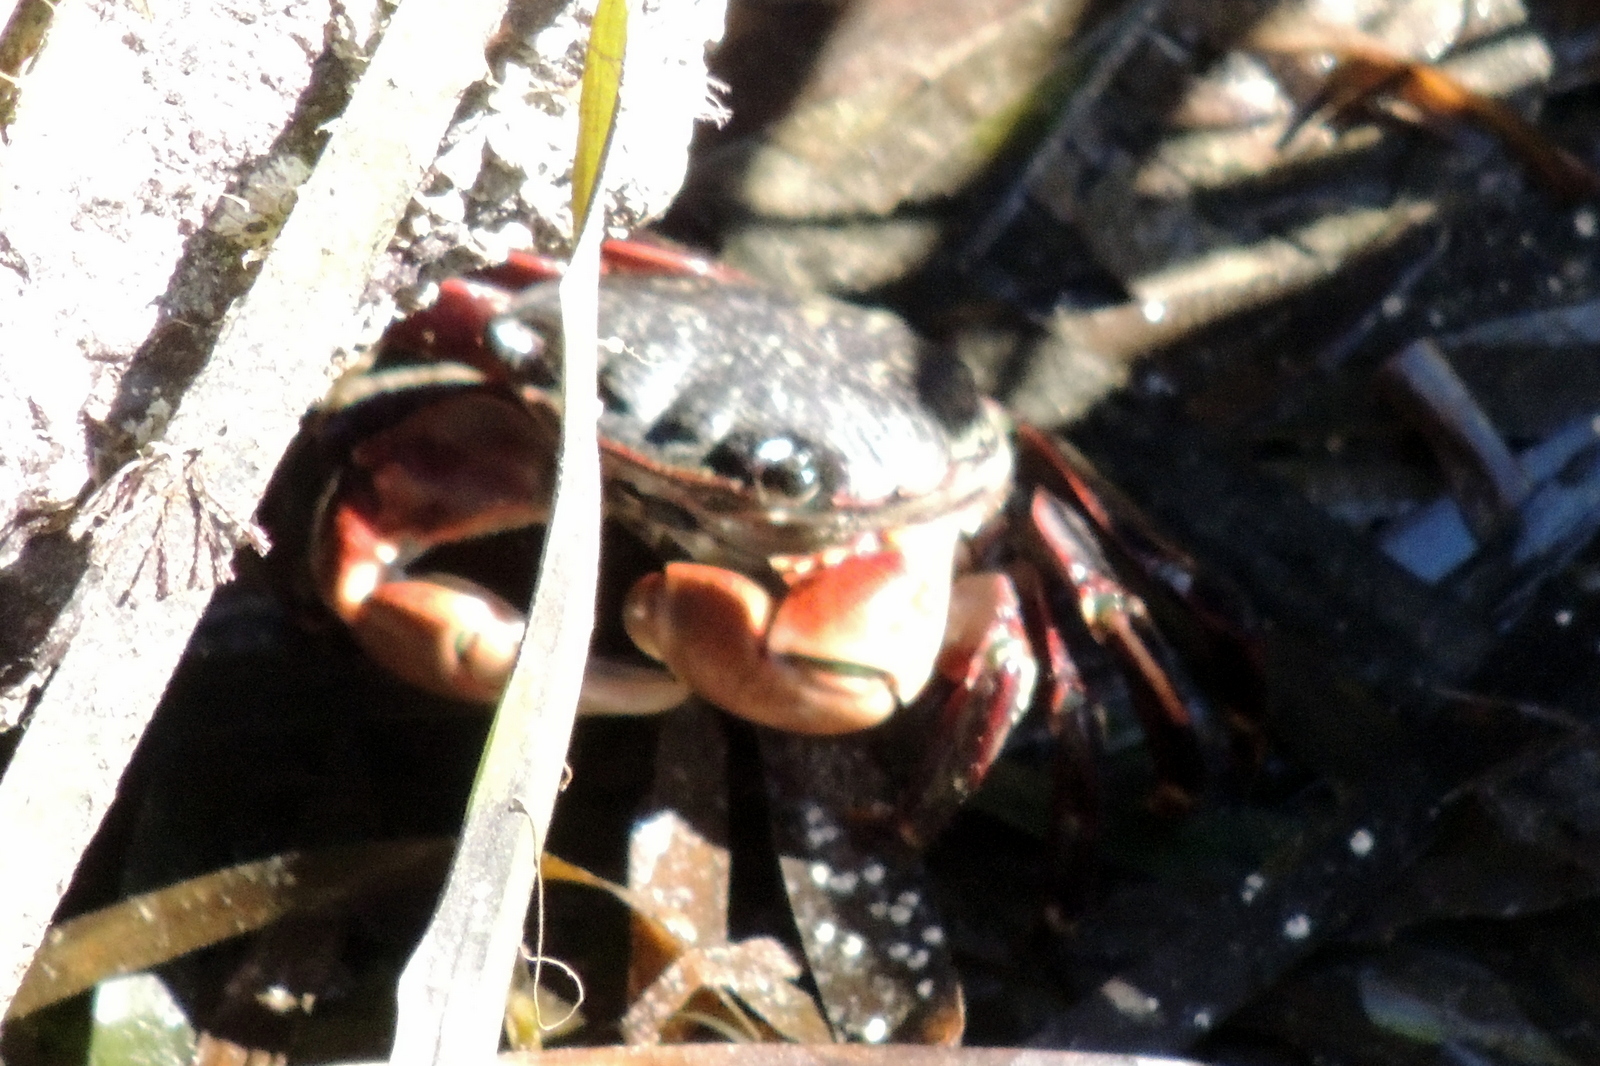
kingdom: Animalia
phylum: Arthropoda
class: Malacostraca
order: Decapoda
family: Grapsidae
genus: Pachygrapsus
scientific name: Pachygrapsus crassipes
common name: Striped shore crab
